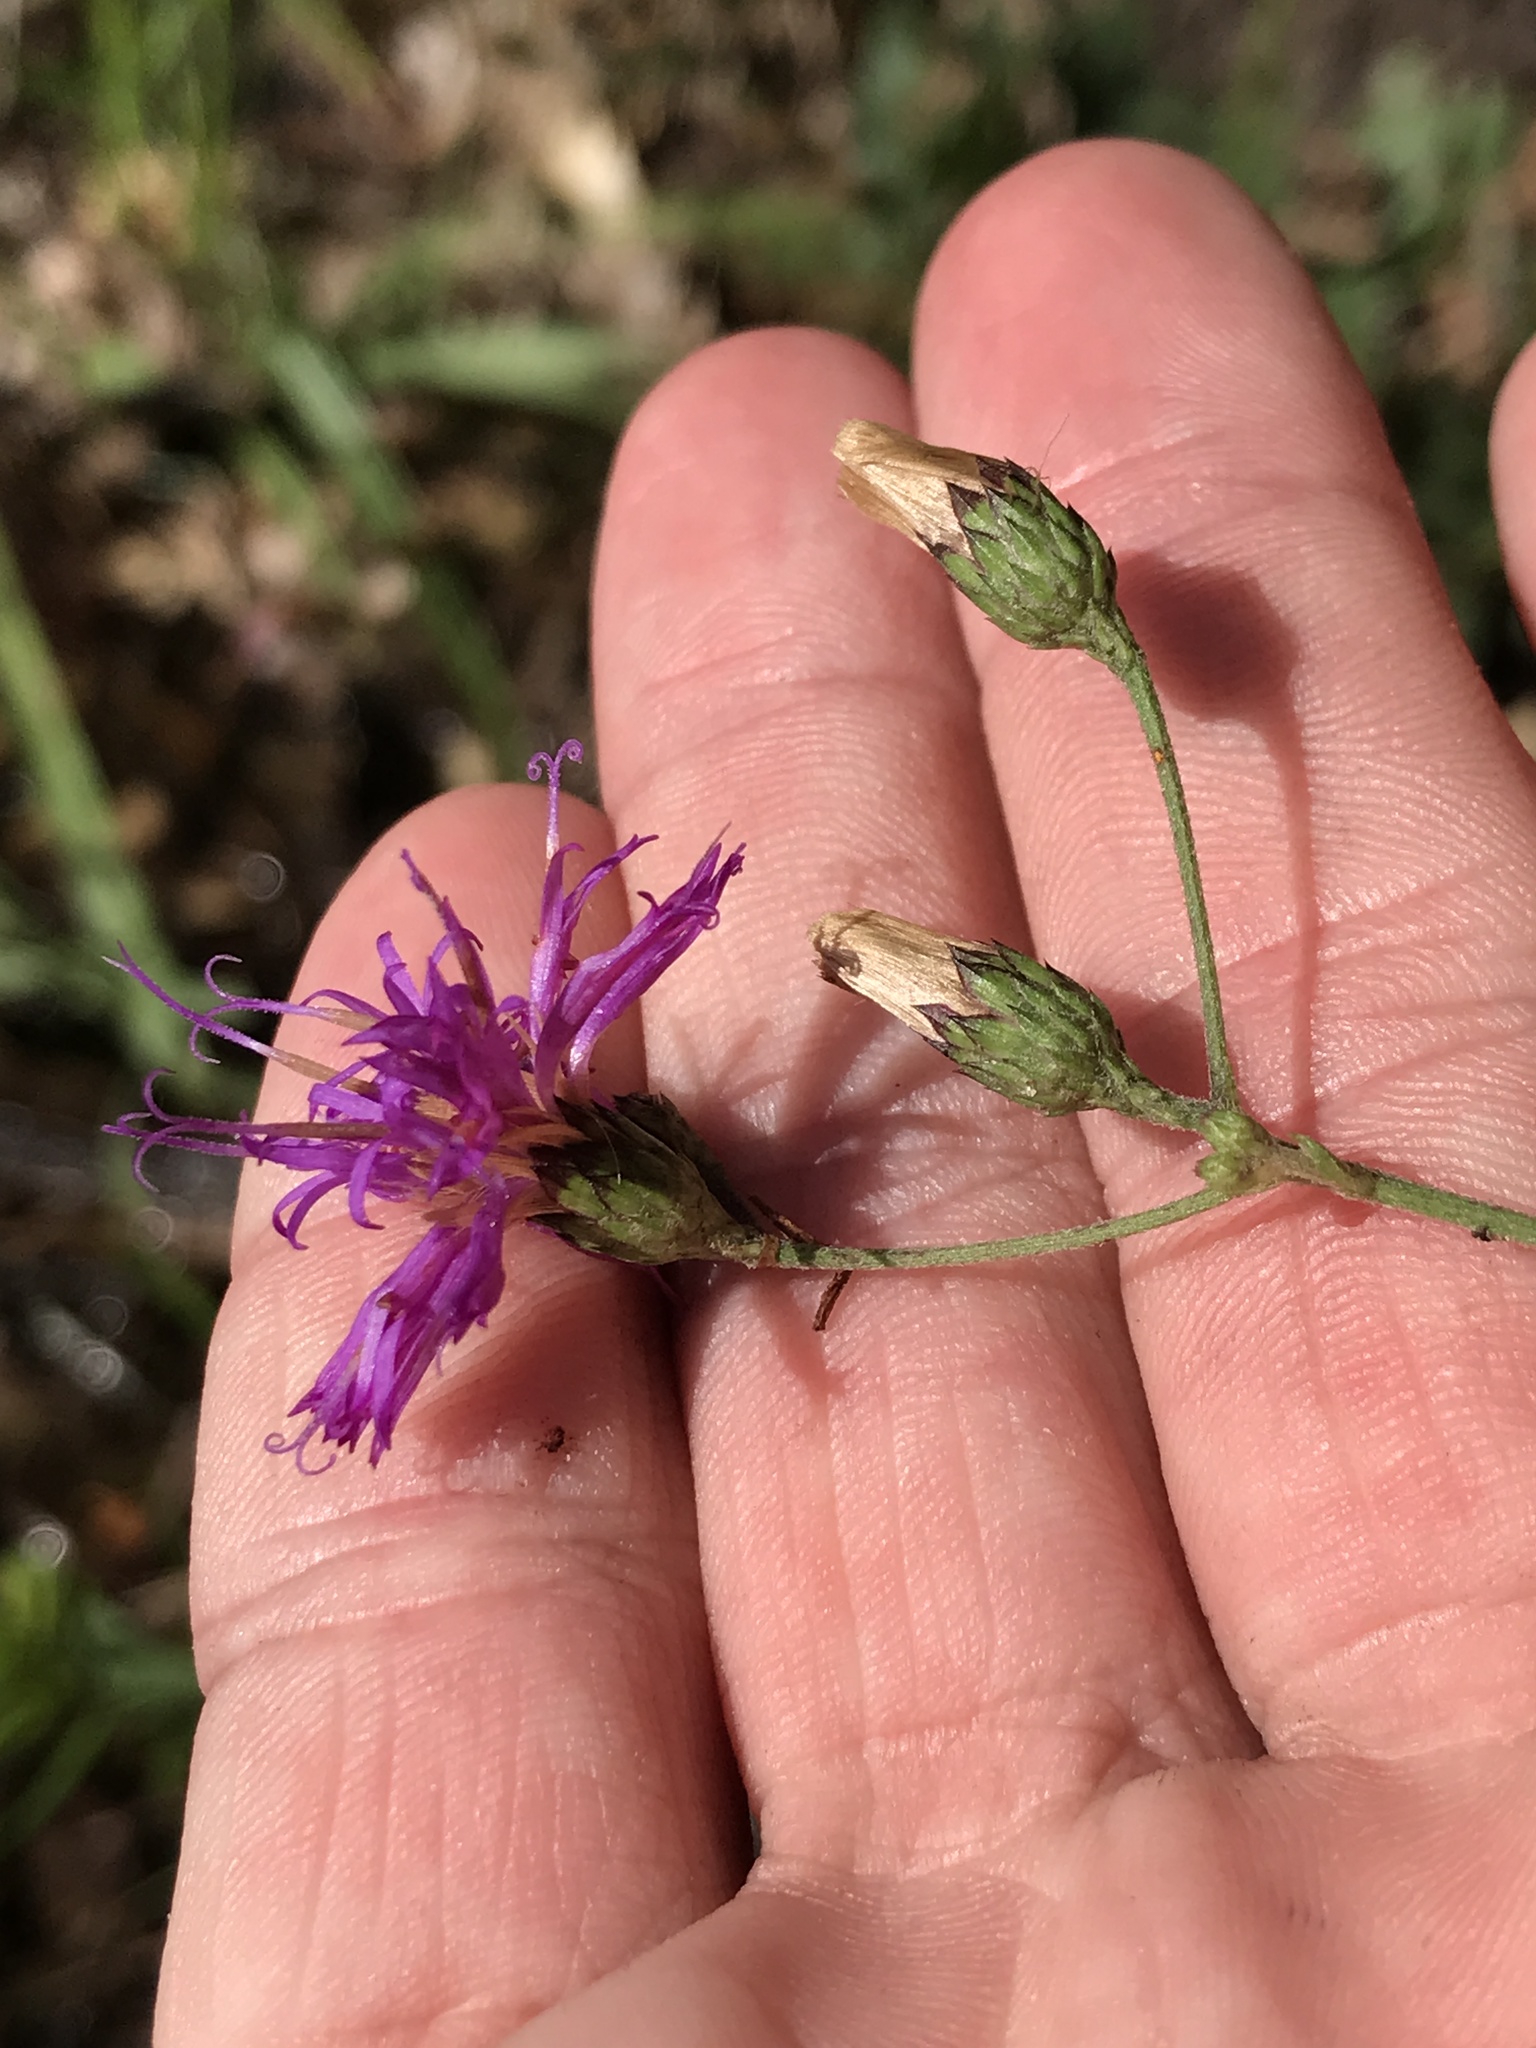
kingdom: Plantae
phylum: Tracheophyta
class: Magnoliopsida
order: Asterales
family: Asteraceae
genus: Vernonia
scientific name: Vernonia texana
